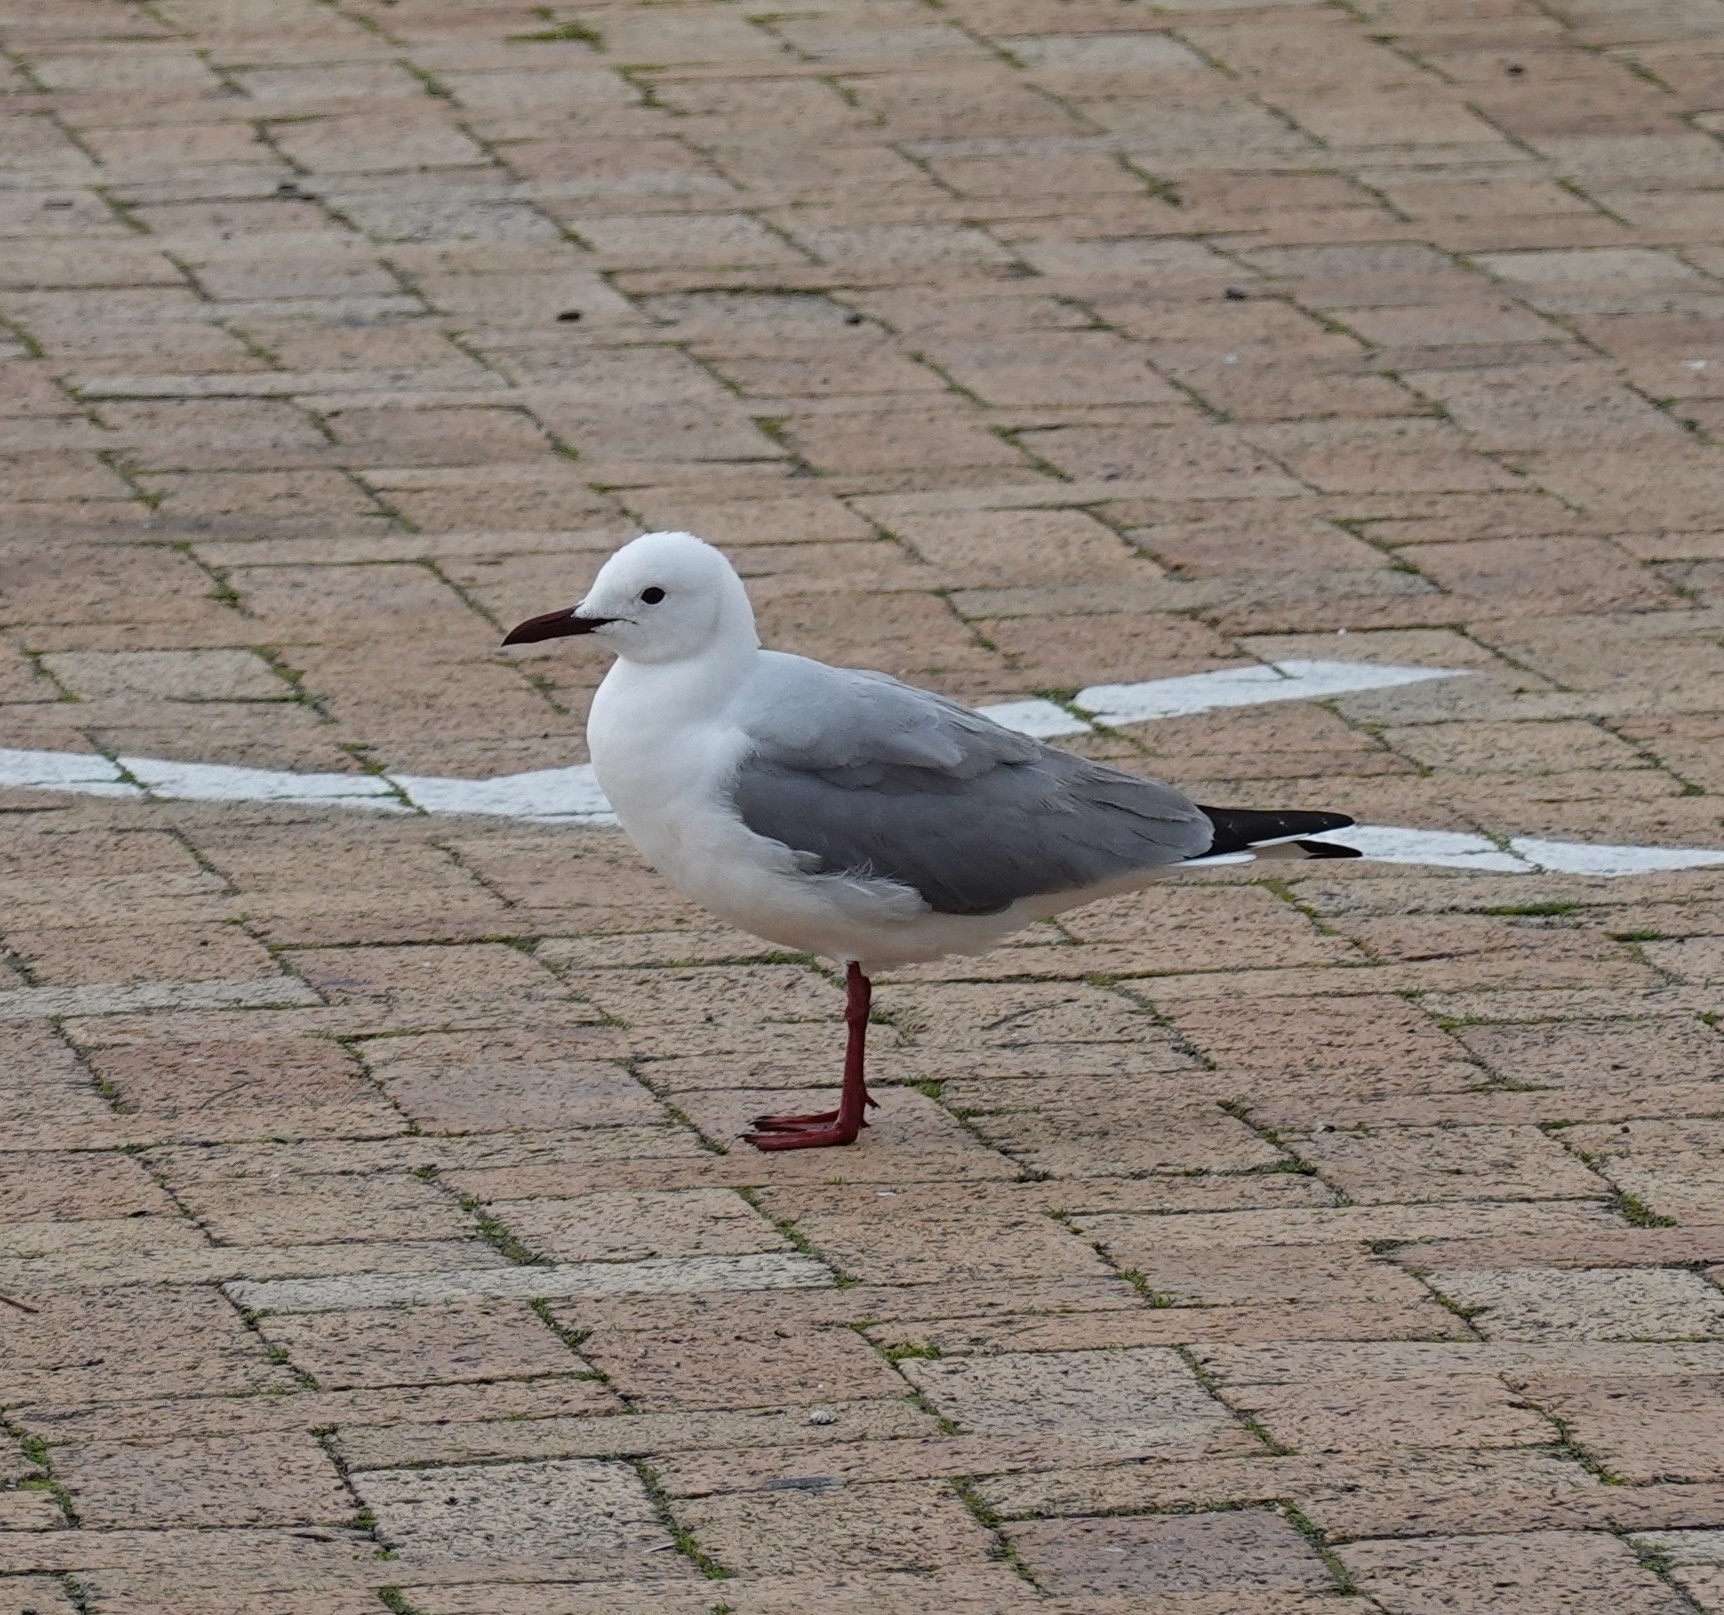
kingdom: Animalia
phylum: Chordata
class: Aves
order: Charadriiformes
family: Laridae
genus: Chroicocephalus
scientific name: Chroicocephalus hartlaubii
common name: Hartlaub's gull
